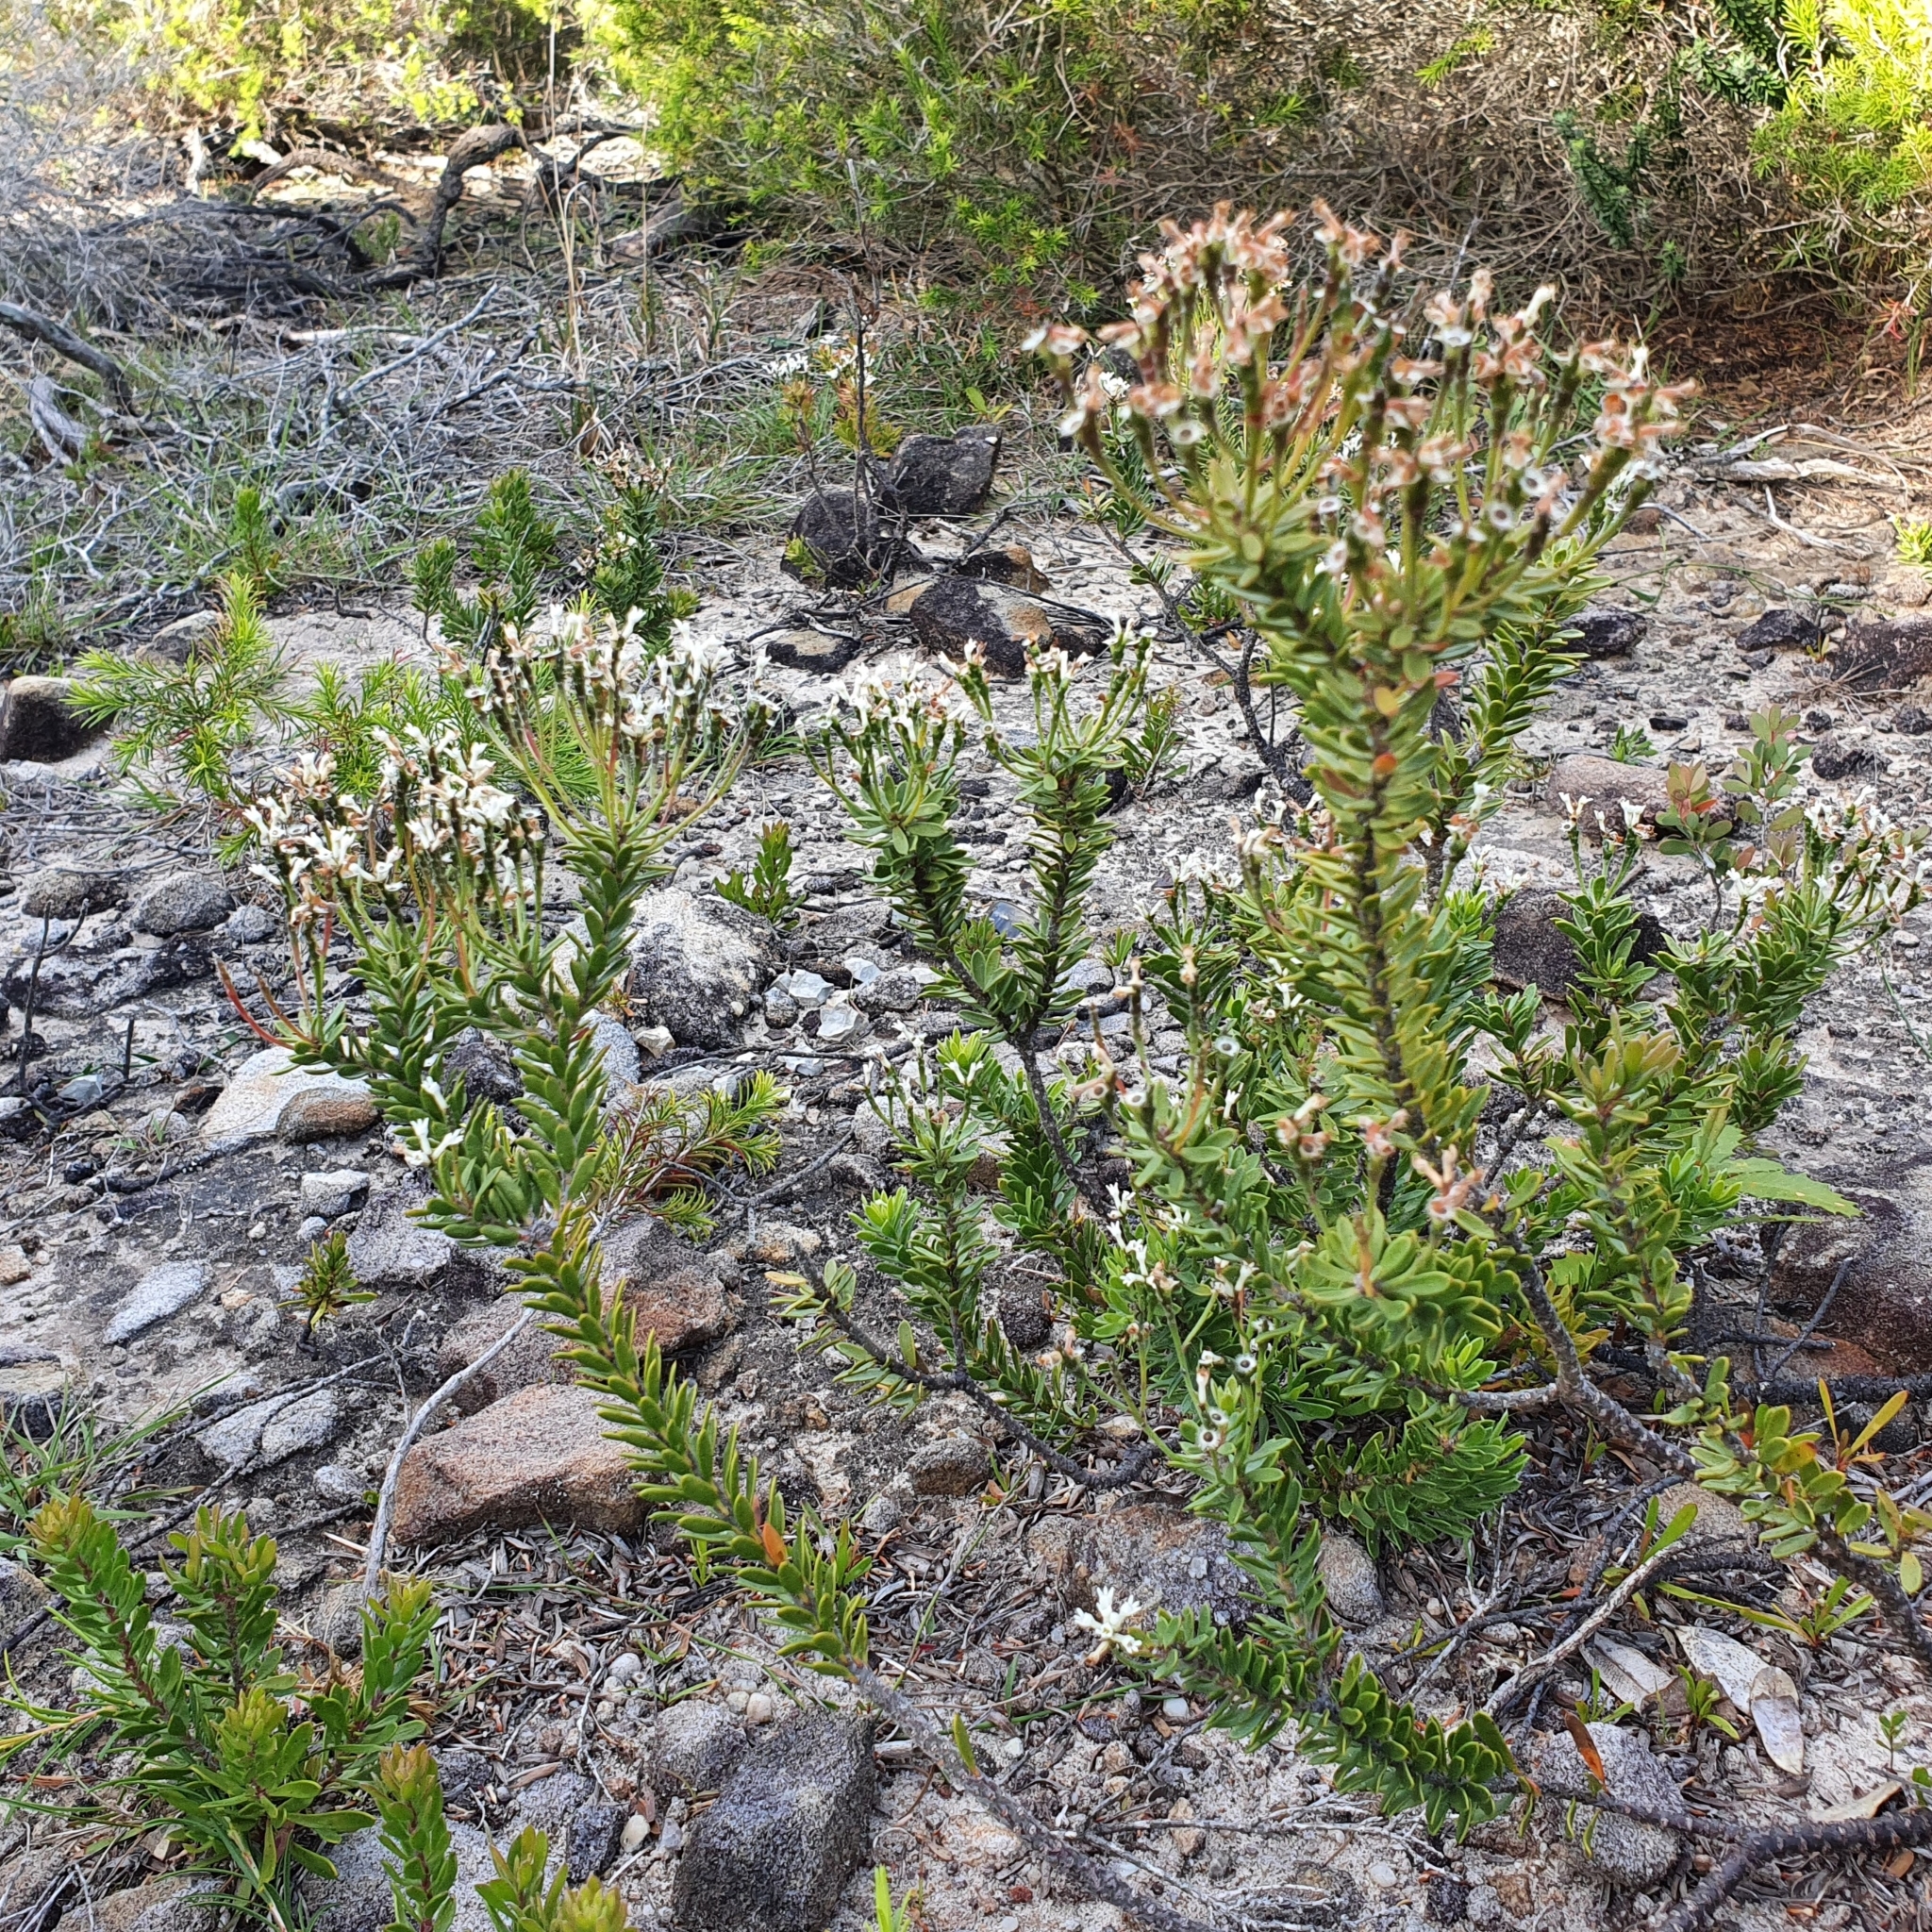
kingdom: Plantae
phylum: Tracheophyta
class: Magnoliopsida
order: Proteales
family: Proteaceae
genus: Conospermum
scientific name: Conospermum ellipticum
